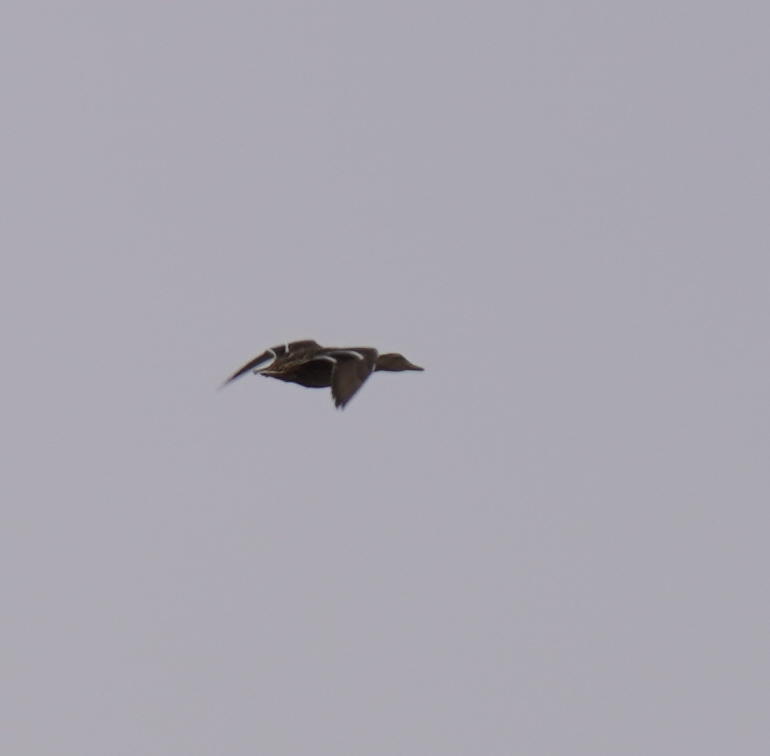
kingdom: Animalia
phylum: Chordata
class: Aves
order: Anseriformes
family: Anatidae
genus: Anas
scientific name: Anas platyrhynchos
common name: Mallard
